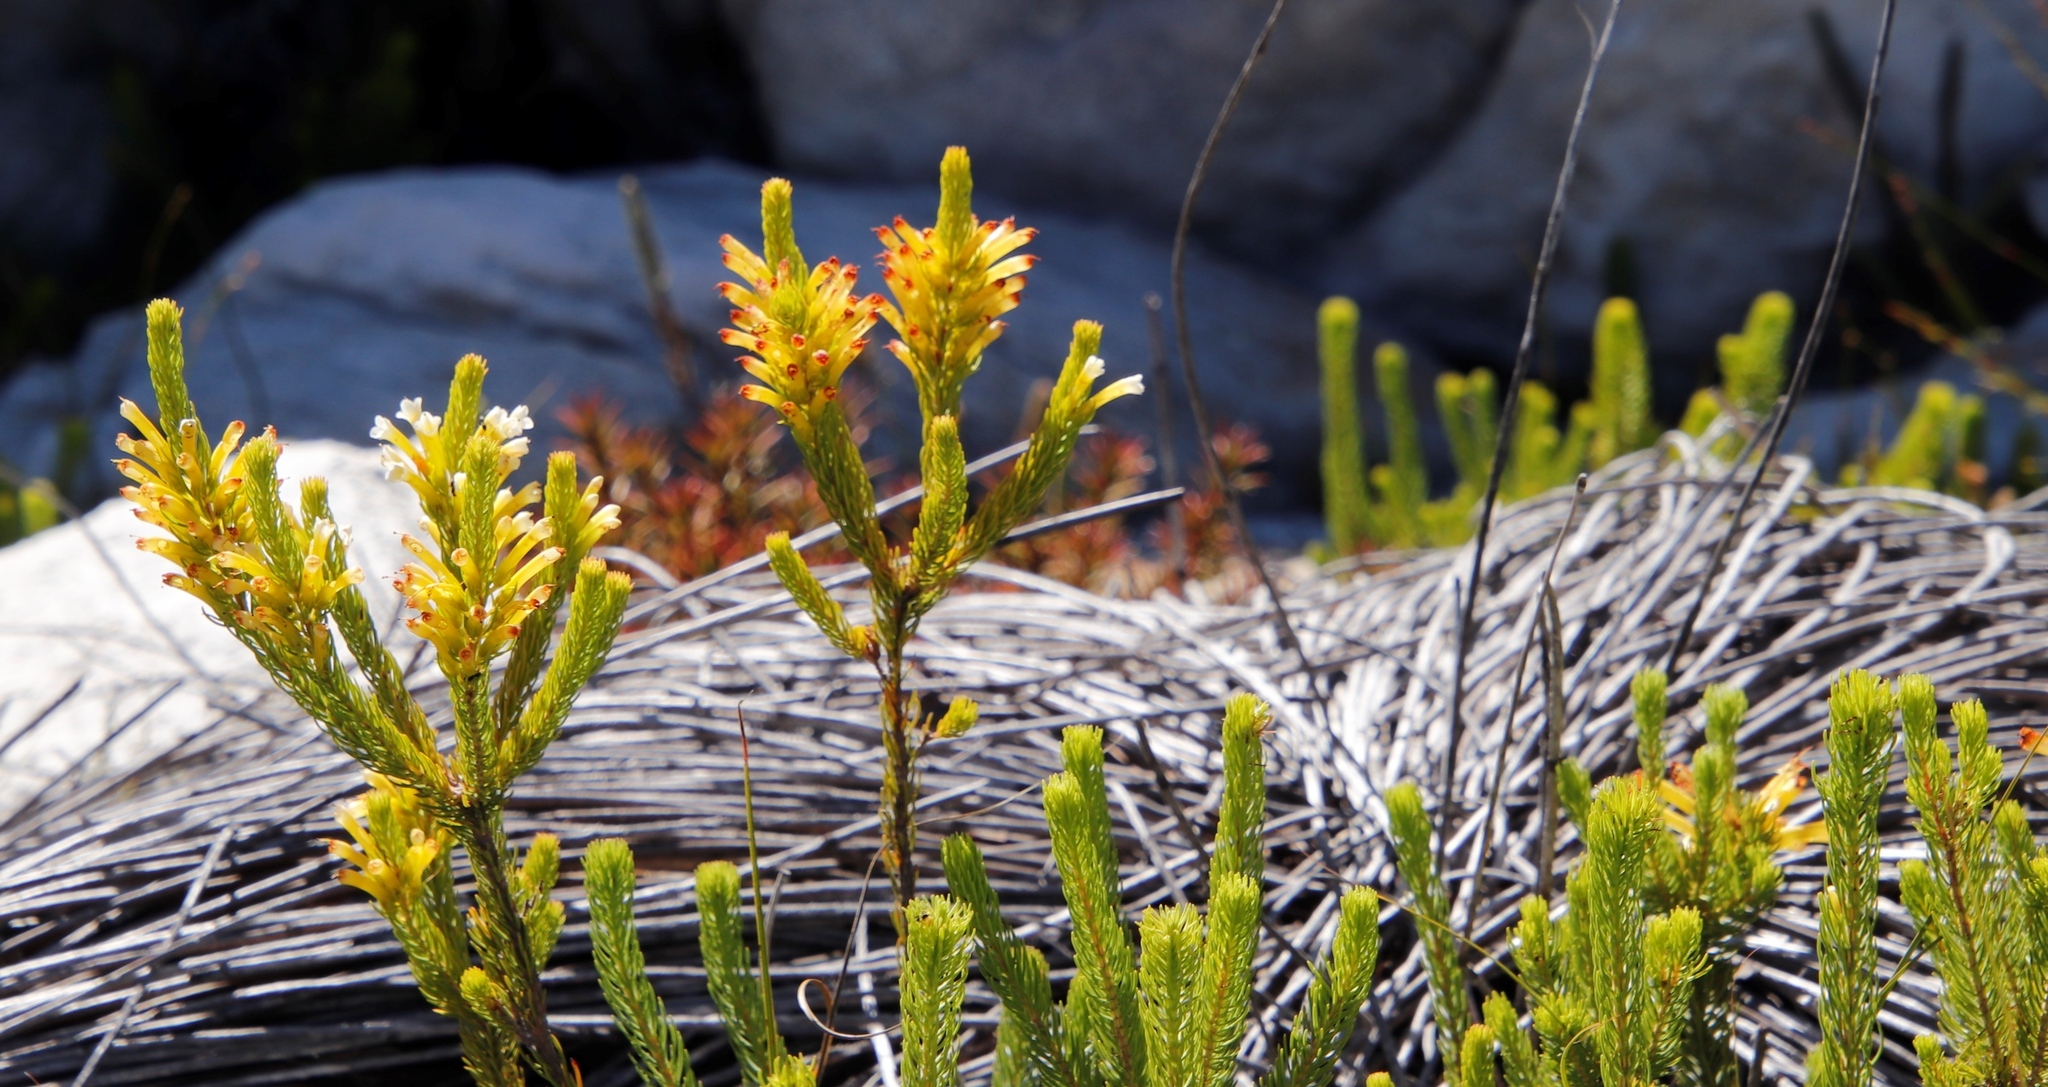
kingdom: Plantae
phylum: Tracheophyta
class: Magnoliopsida
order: Ericales
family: Ericaceae
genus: Erica
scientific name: Erica pinea
